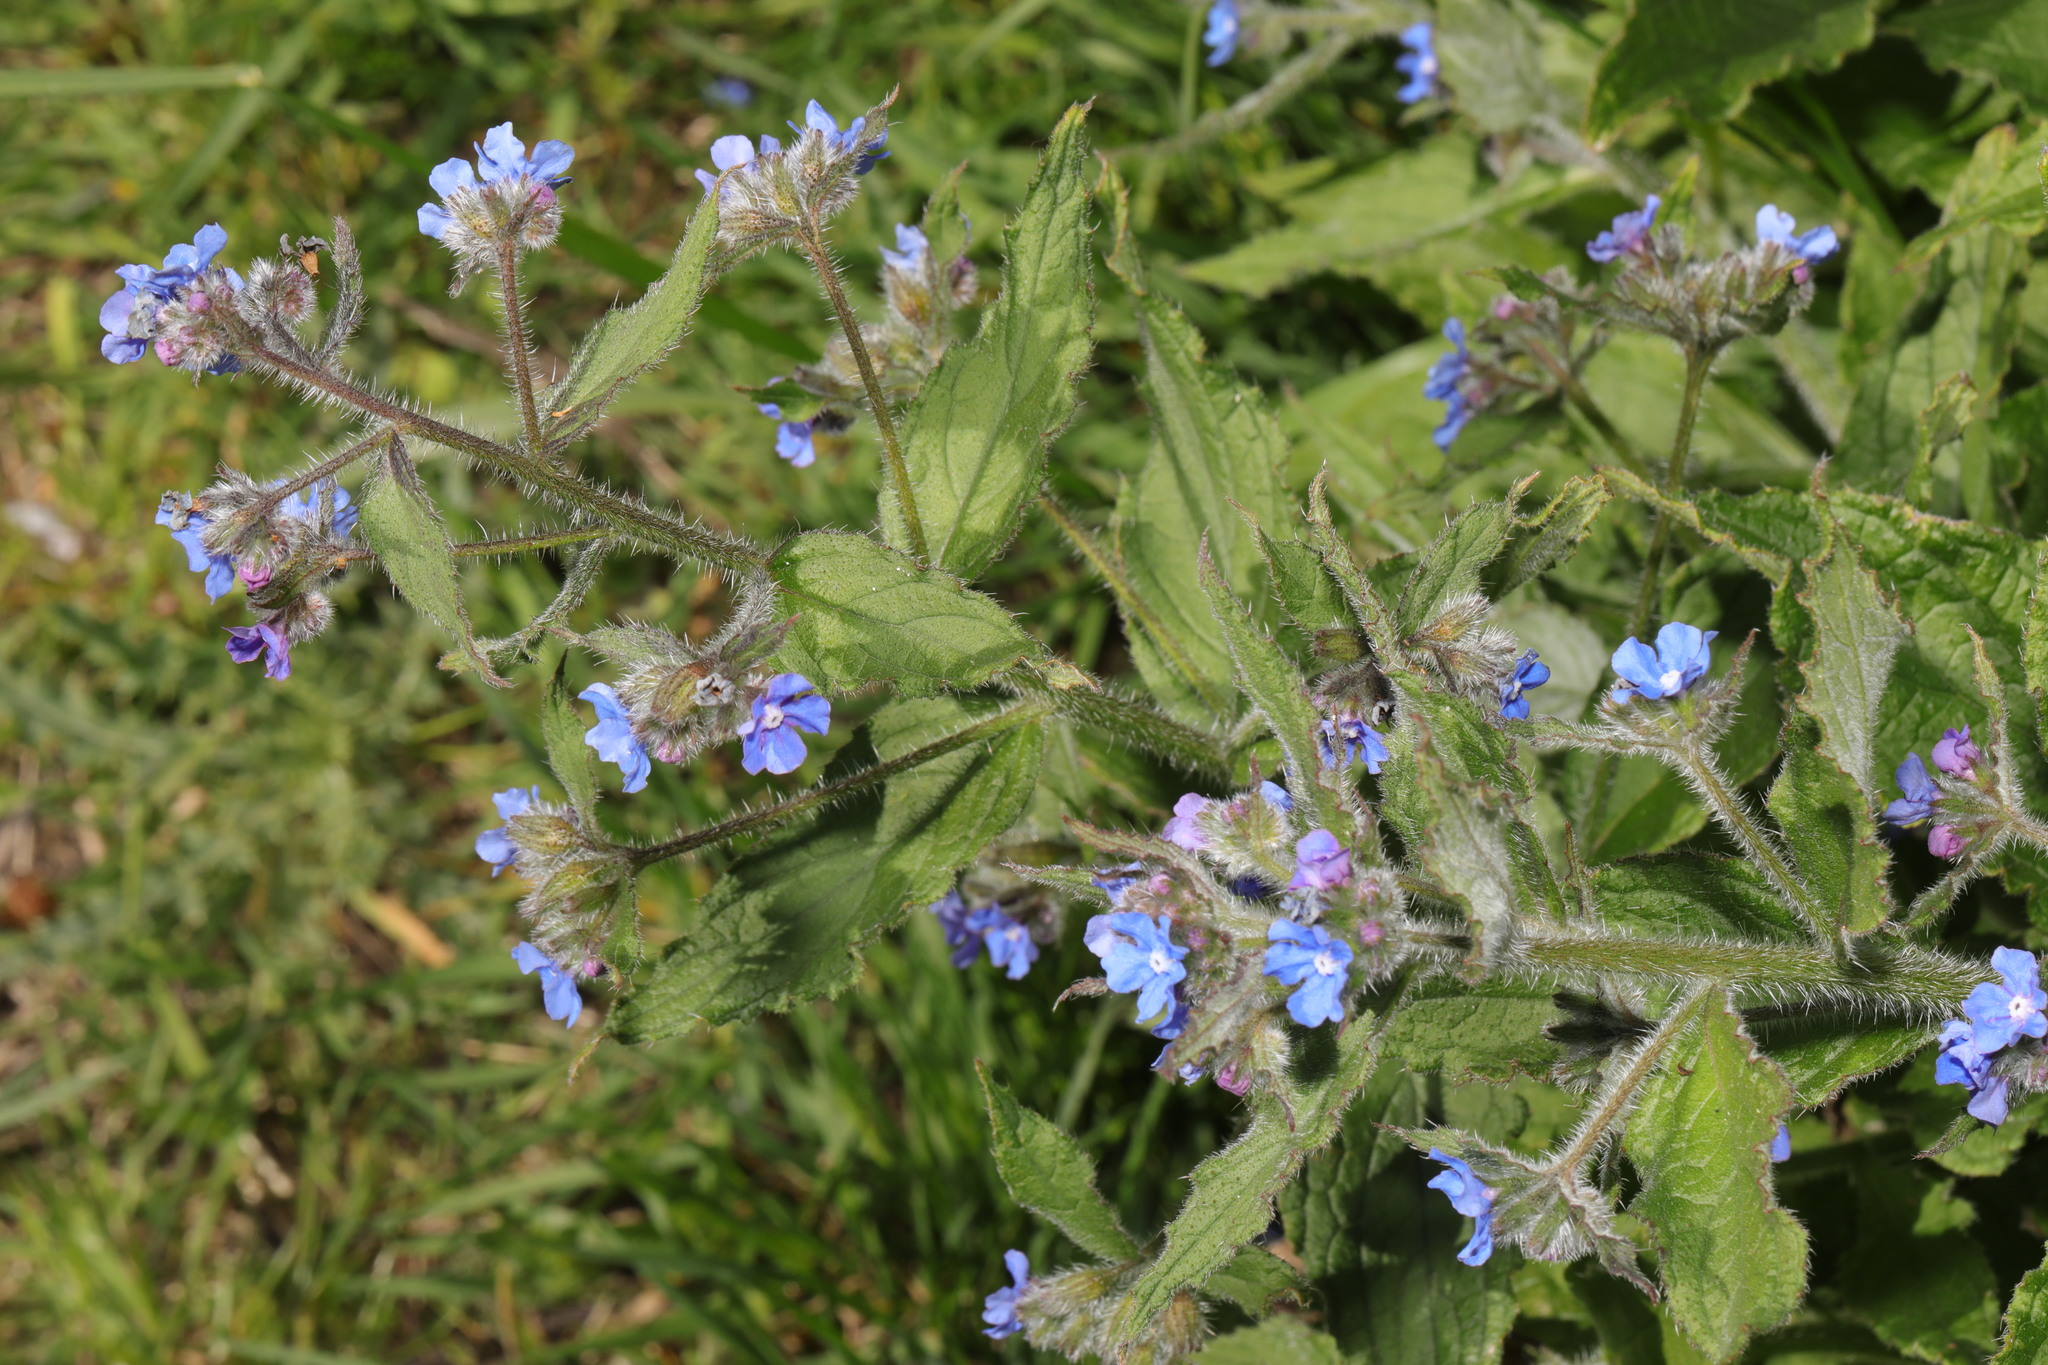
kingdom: Plantae
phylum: Tracheophyta
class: Magnoliopsida
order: Boraginales
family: Boraginaceae
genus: Pentaglottis
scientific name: Pentaglottis sempervirens
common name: Green alkanet
